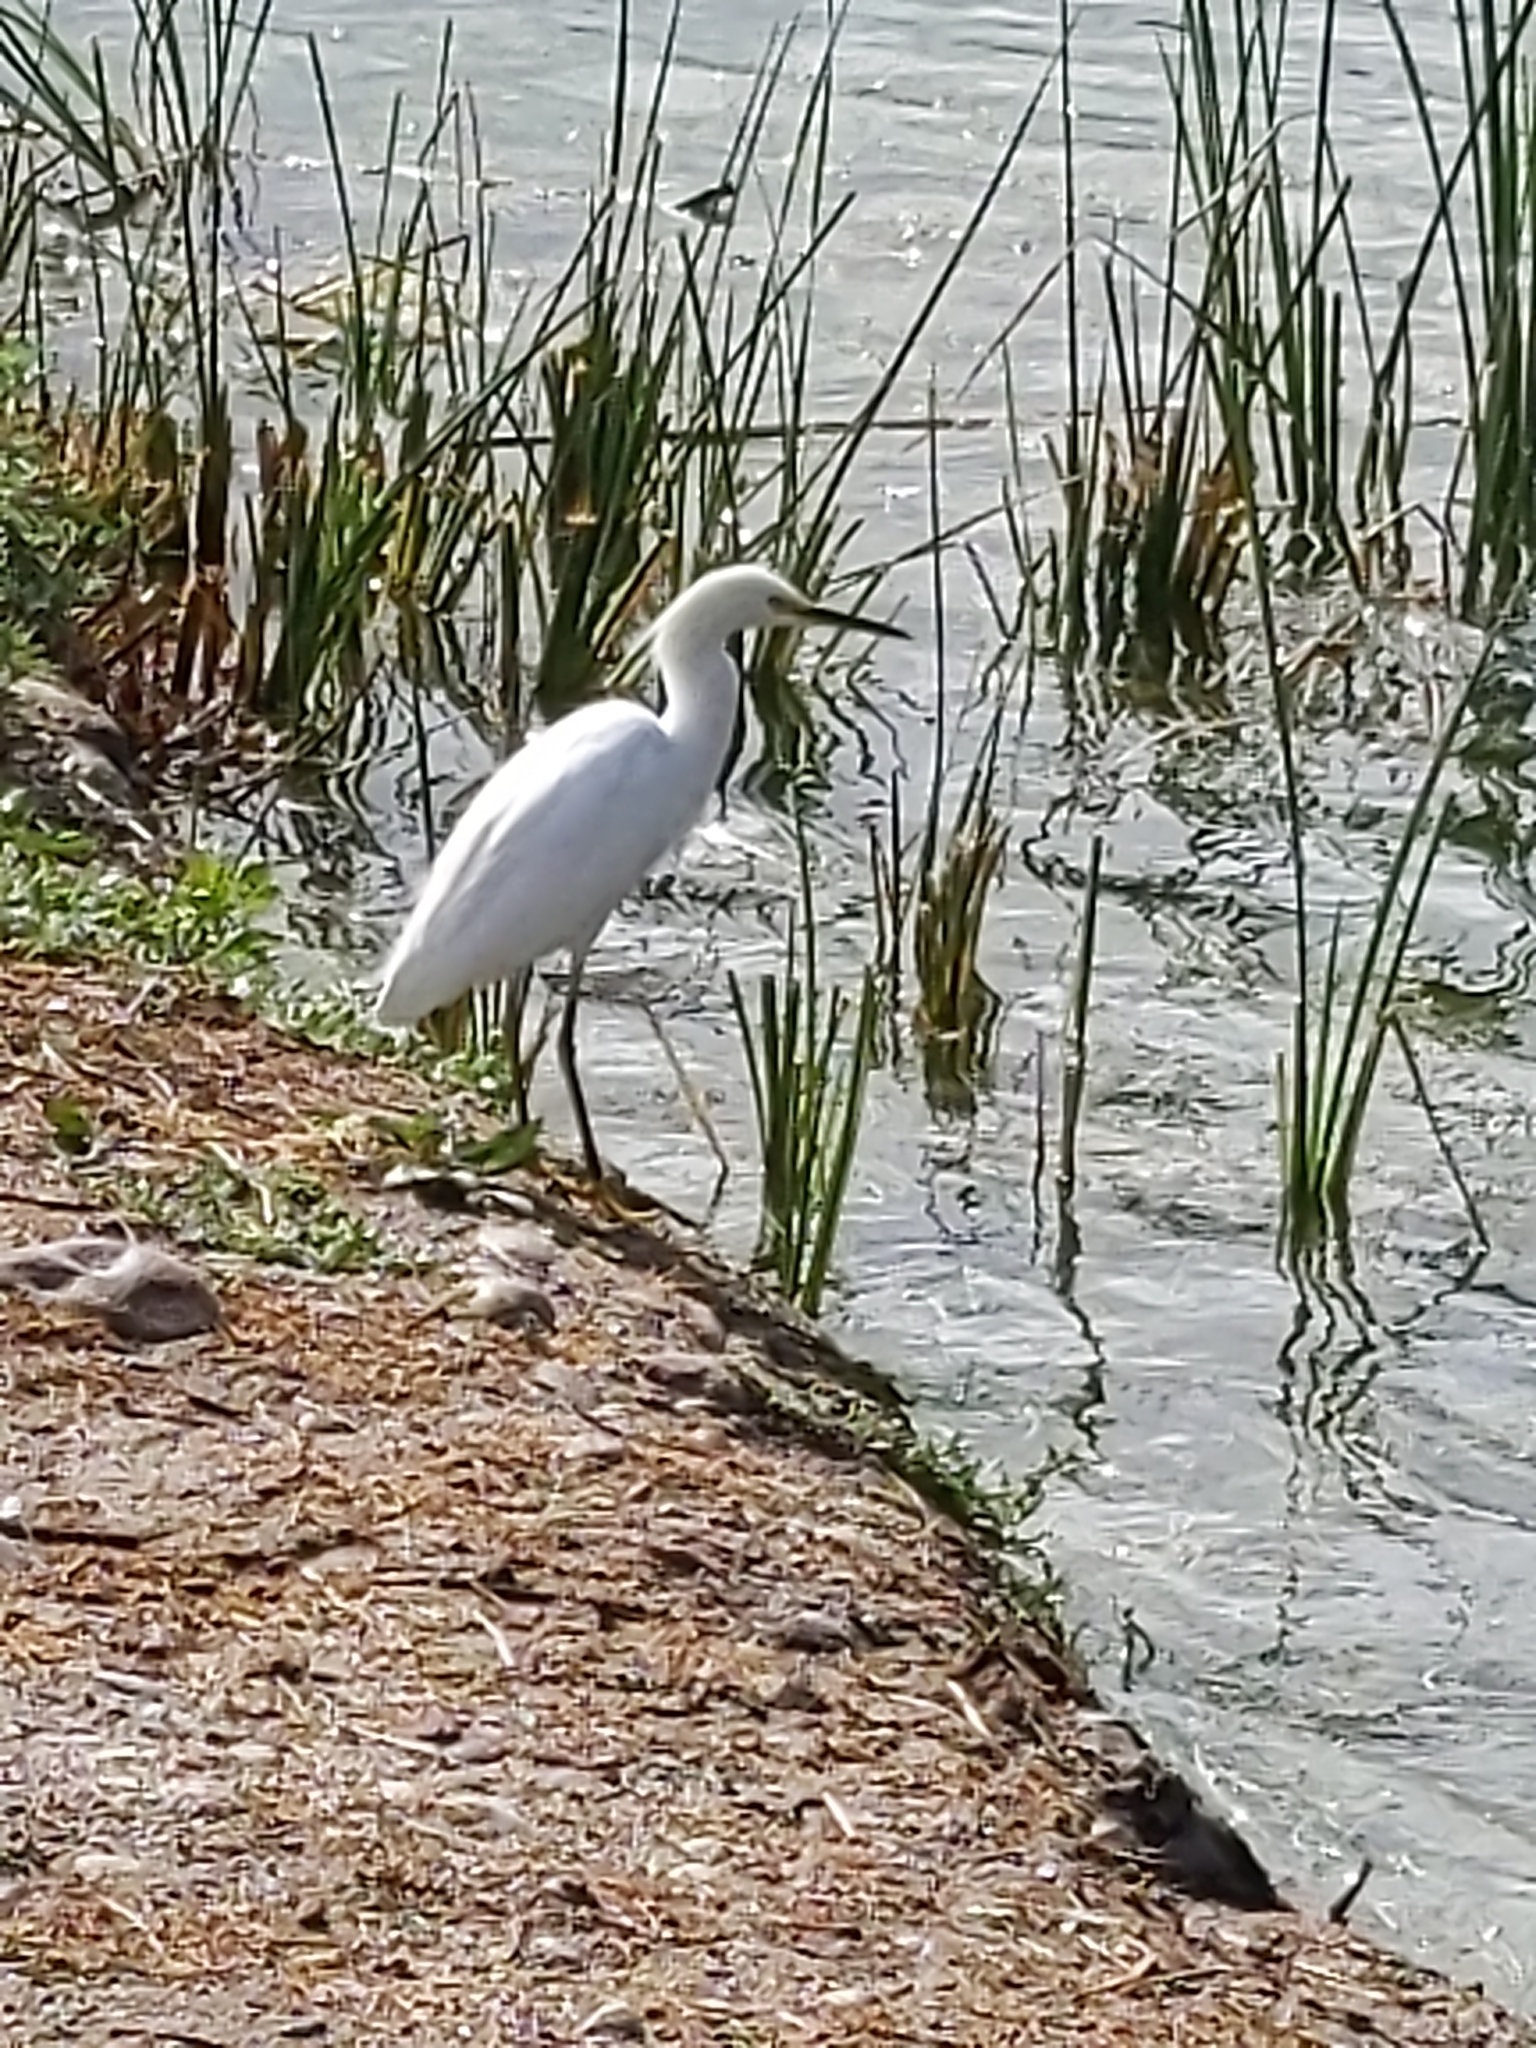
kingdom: Animalia
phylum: Chordata
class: Aves
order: Pelecaniformes
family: Ardeidae
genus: Egretta
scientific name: Egretta thula
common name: Snowy egret
